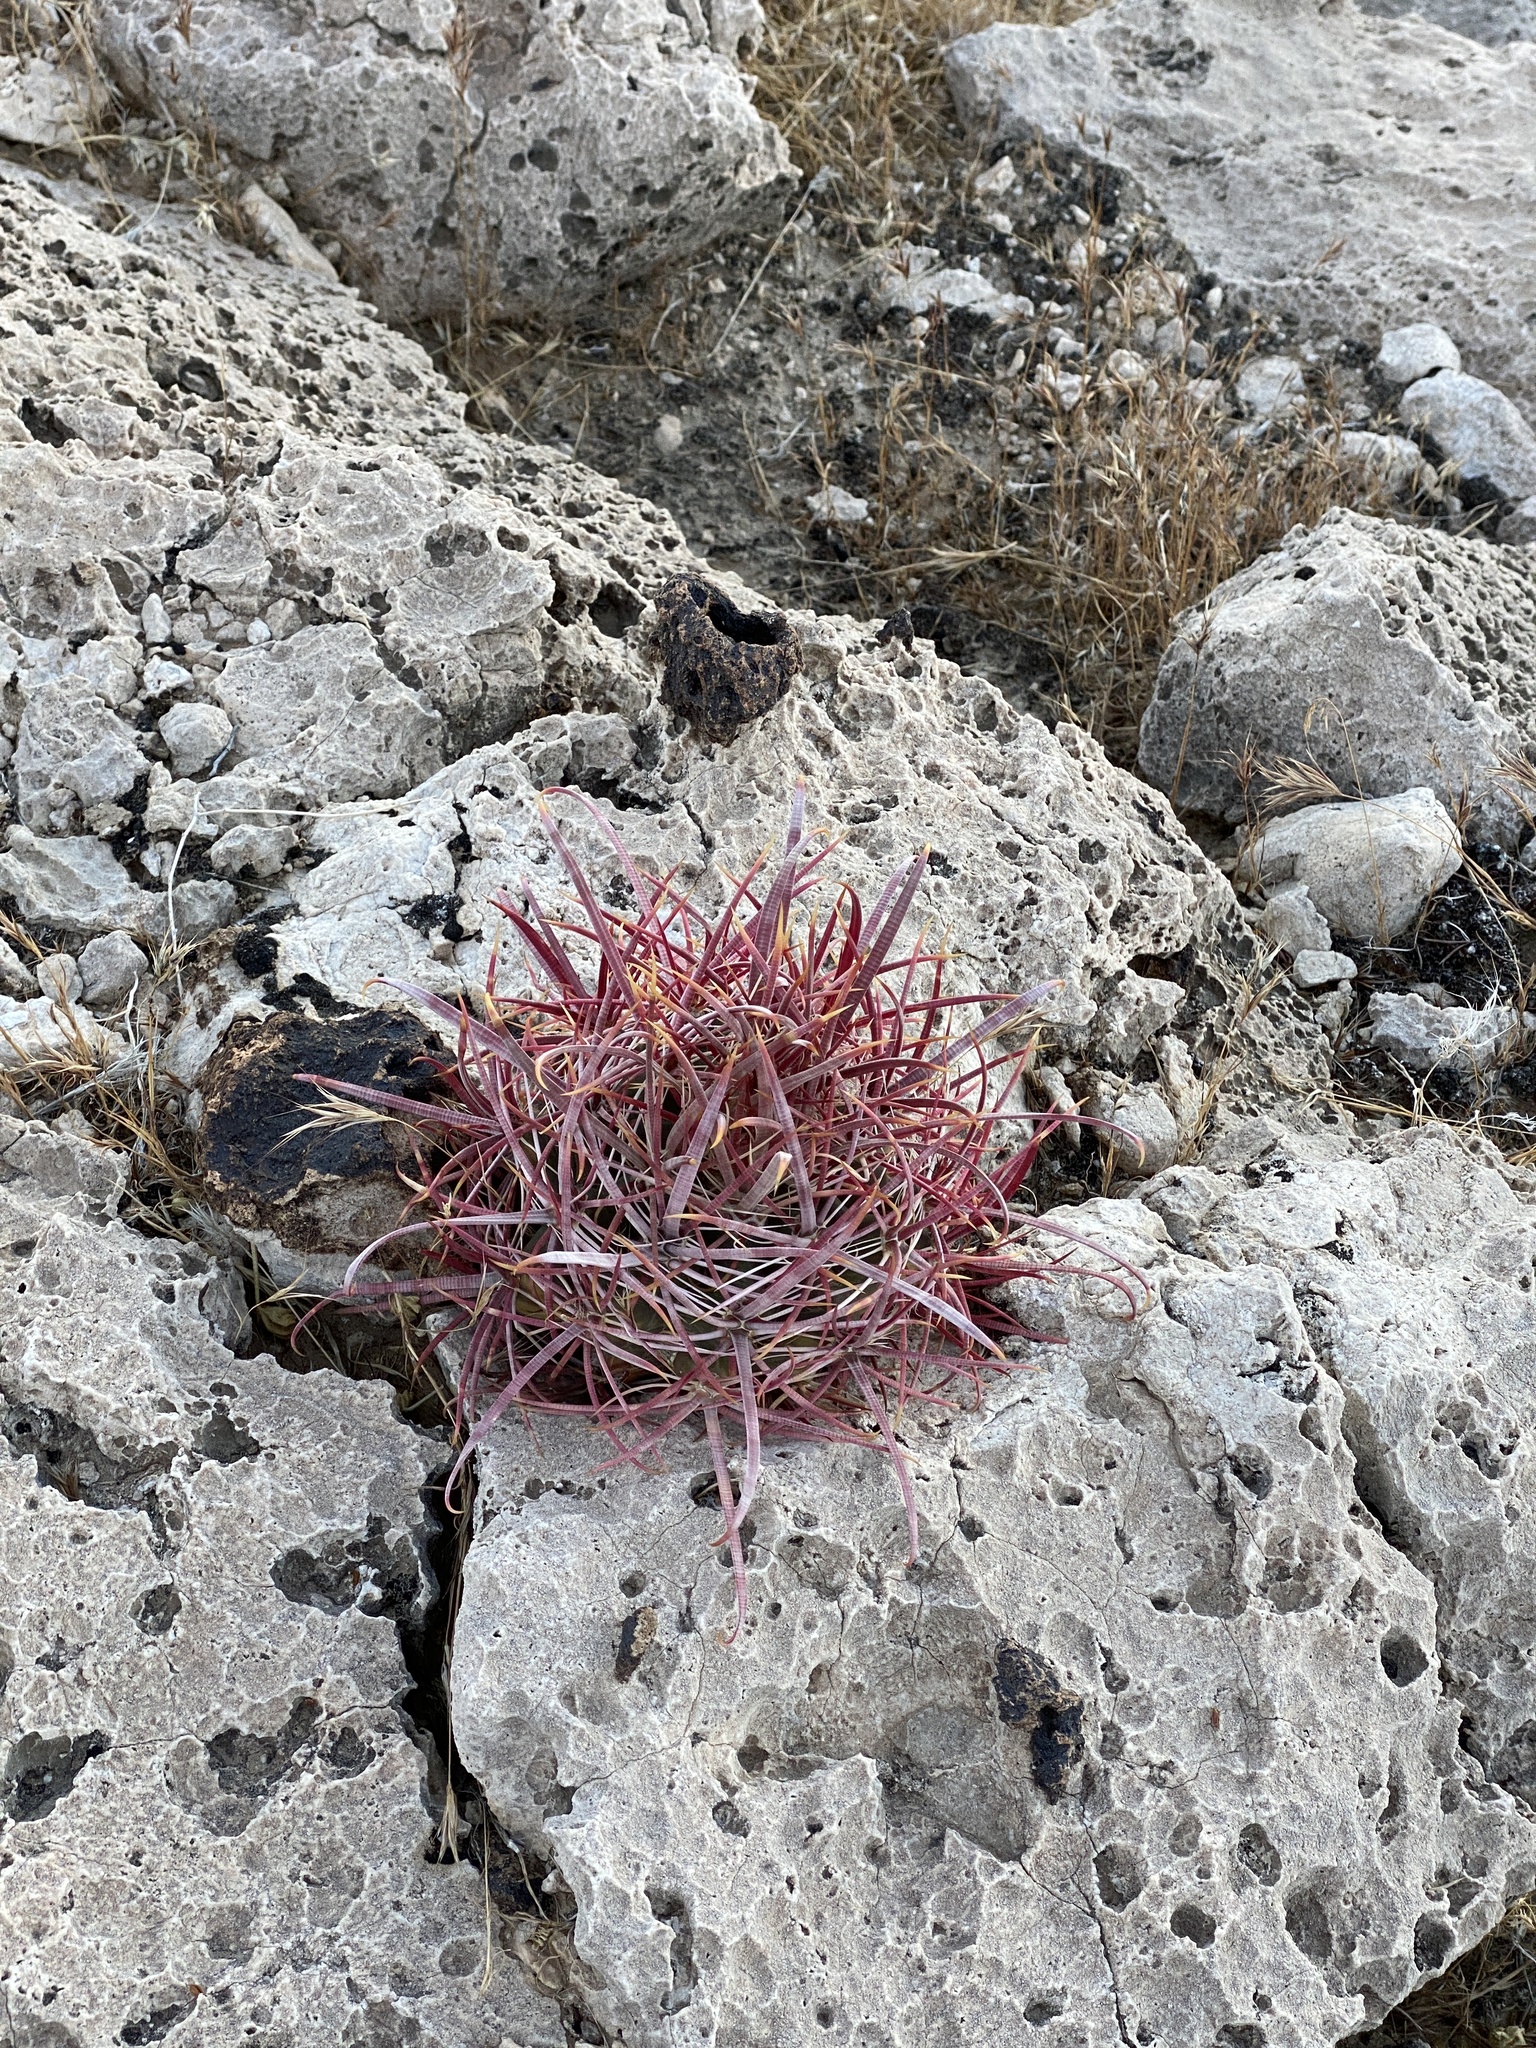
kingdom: Plantae
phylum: Tracheophyta
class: Magnoliopsida
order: Caryophyllales
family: Cactaceae
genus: Ferocactus
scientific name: Ferocactus cylindraceus
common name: California barrel cactus
